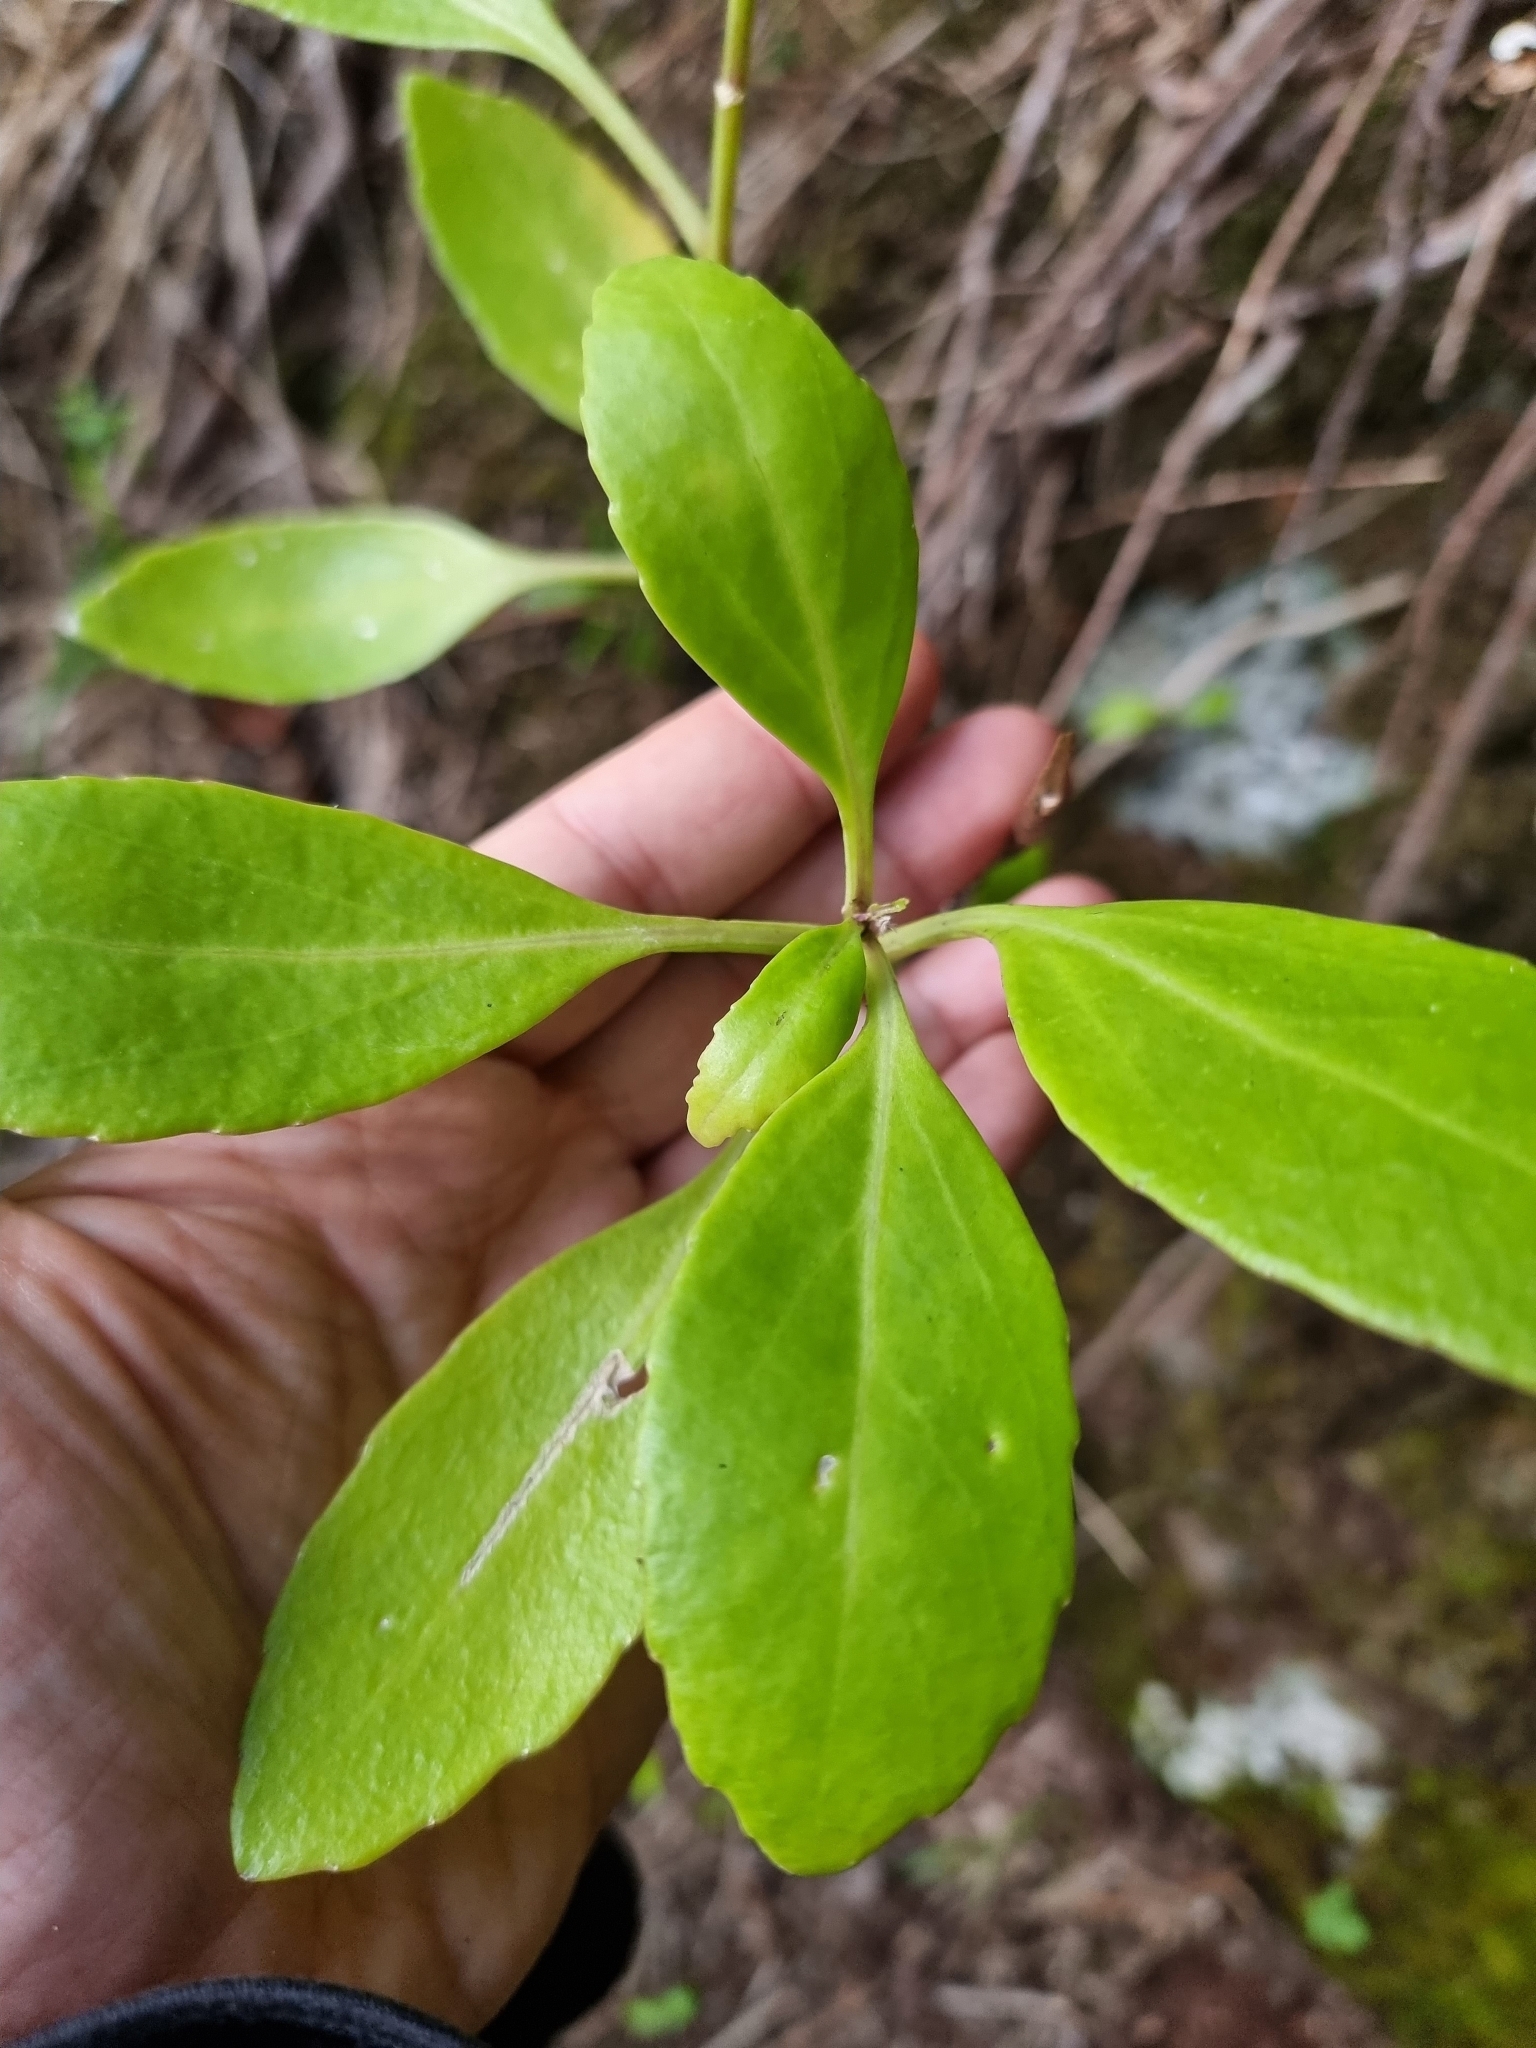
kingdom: Plantae
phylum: Tracheophyta
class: Magnoliopsida
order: Brassicales
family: Brassicaceae
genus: Sinapidendron
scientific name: Sinapidendron frutescens
